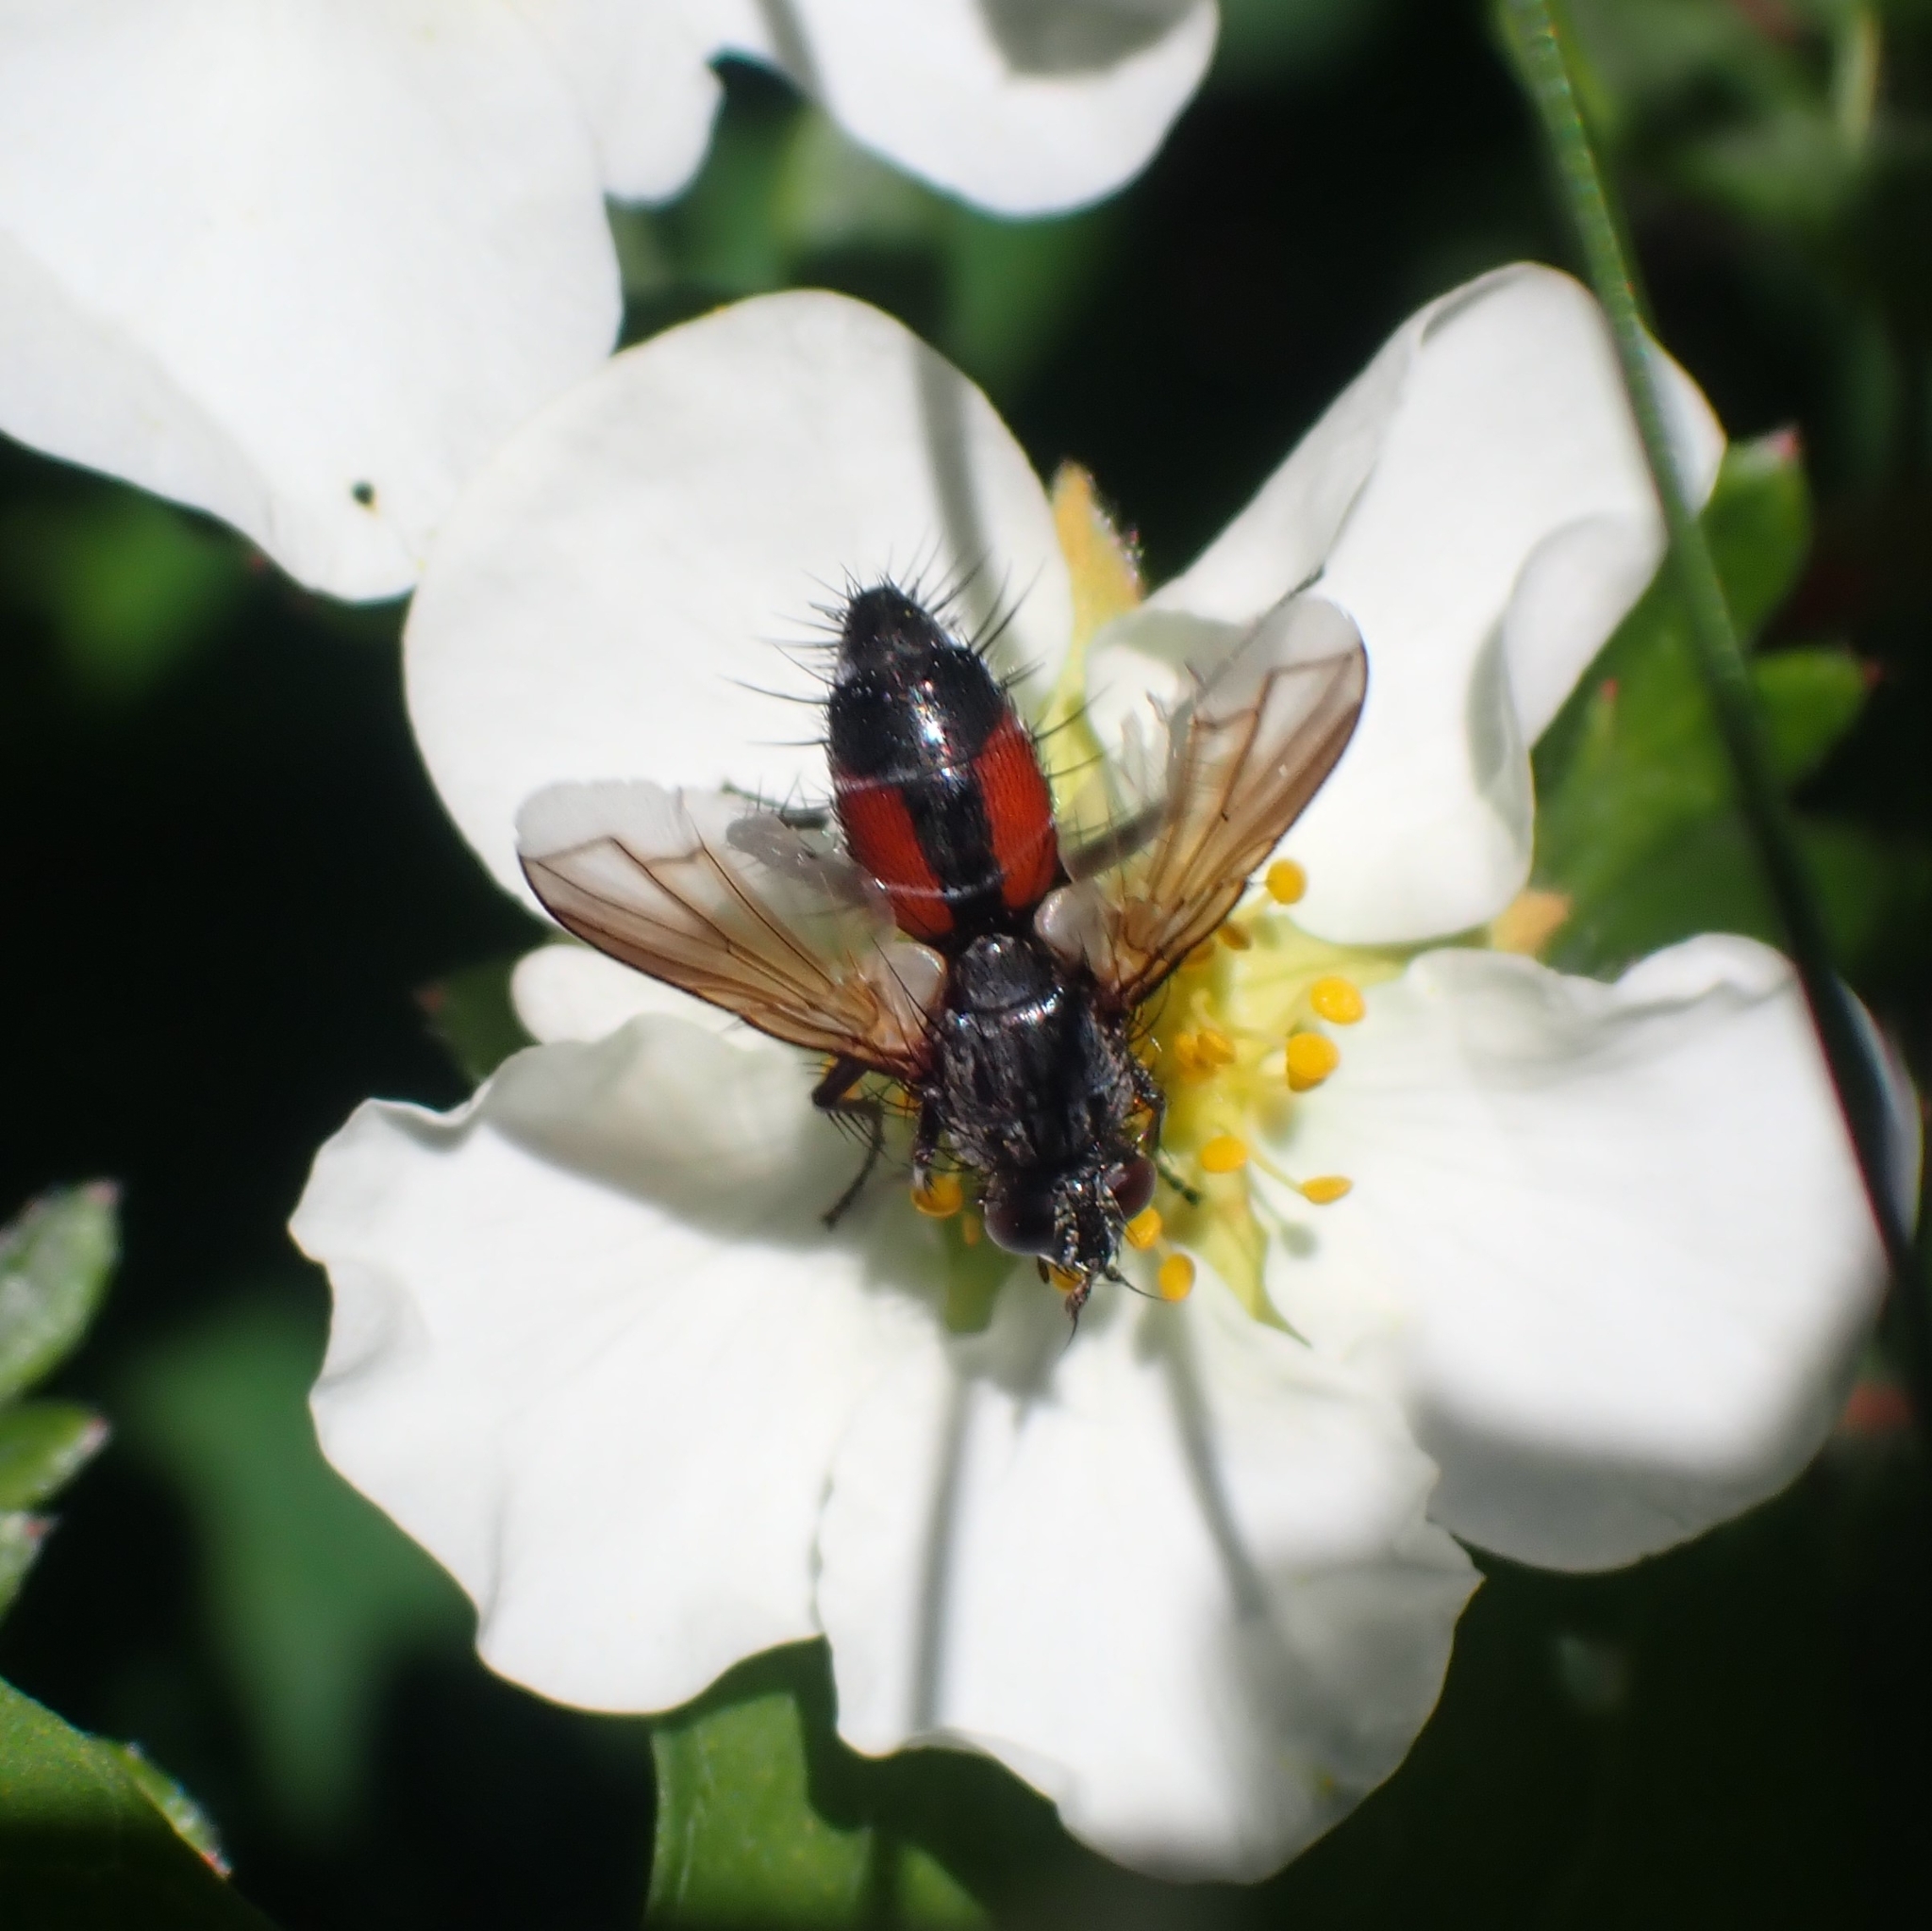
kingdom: Animalia
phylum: Arthropoda
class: Insecta
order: Diptera
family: Tachinidae
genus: Eriothrix
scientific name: Eriothrix rufomaculatus
